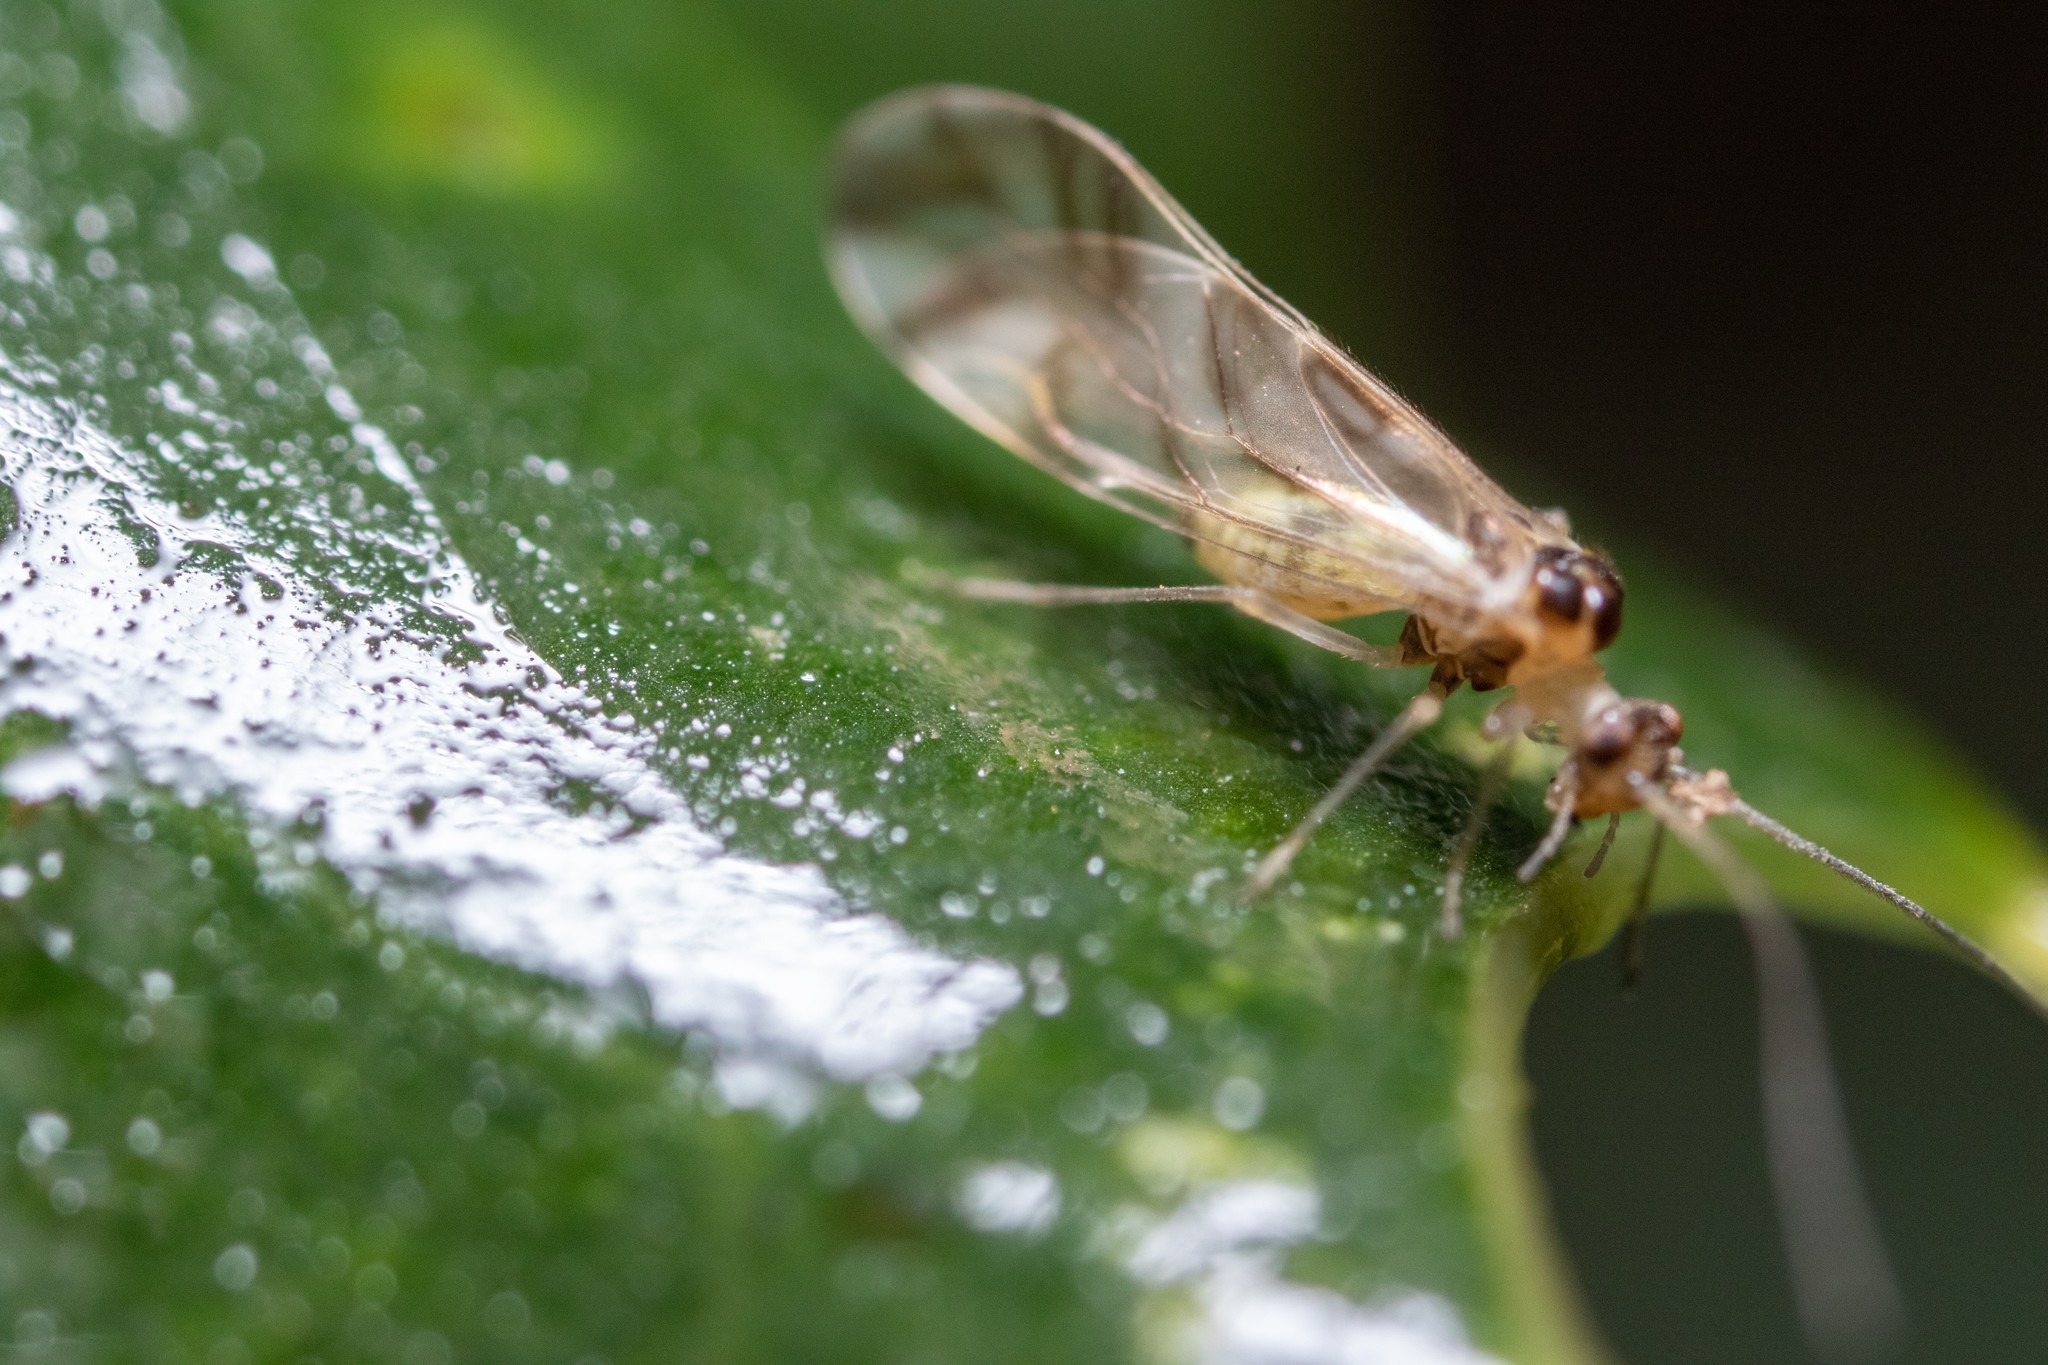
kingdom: Animalia
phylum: Arthropoda
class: Insecta
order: Psocodea
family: Stenopsocidae
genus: Graphopsocus
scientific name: Graphopsocus cruciatus
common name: Lizard bark louse
